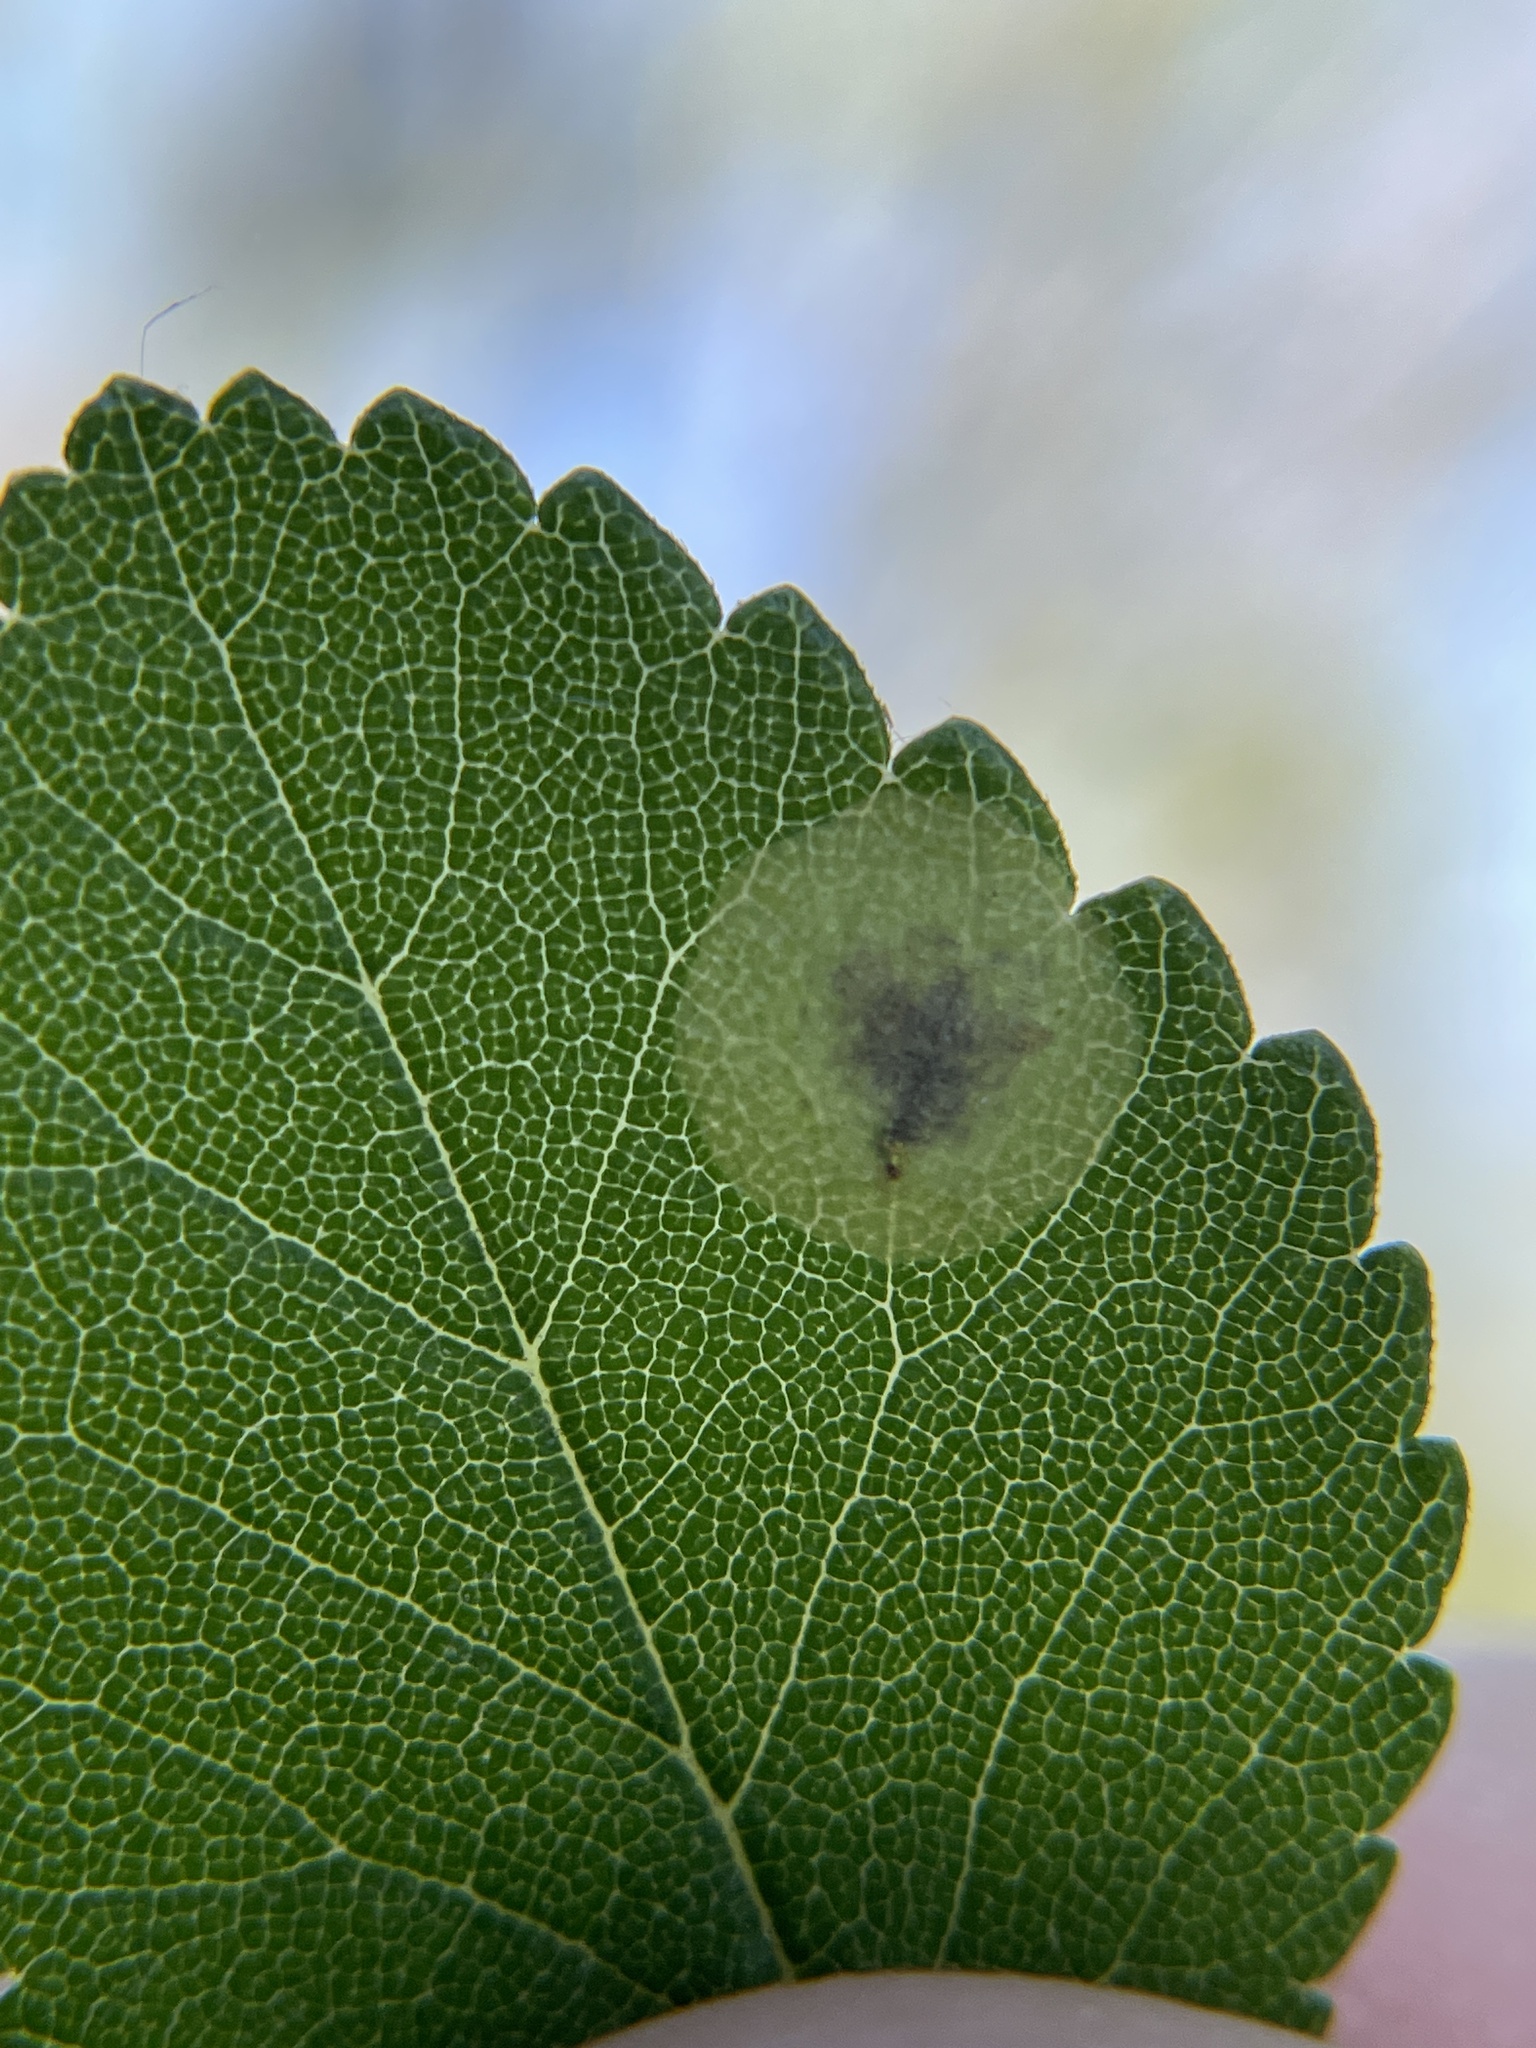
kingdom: Animalia
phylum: Arthropoda
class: Insecta
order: Lepidoptera
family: Gracillariidae
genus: Cameraria
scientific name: Cameraria ulmella
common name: Elm leafminer
